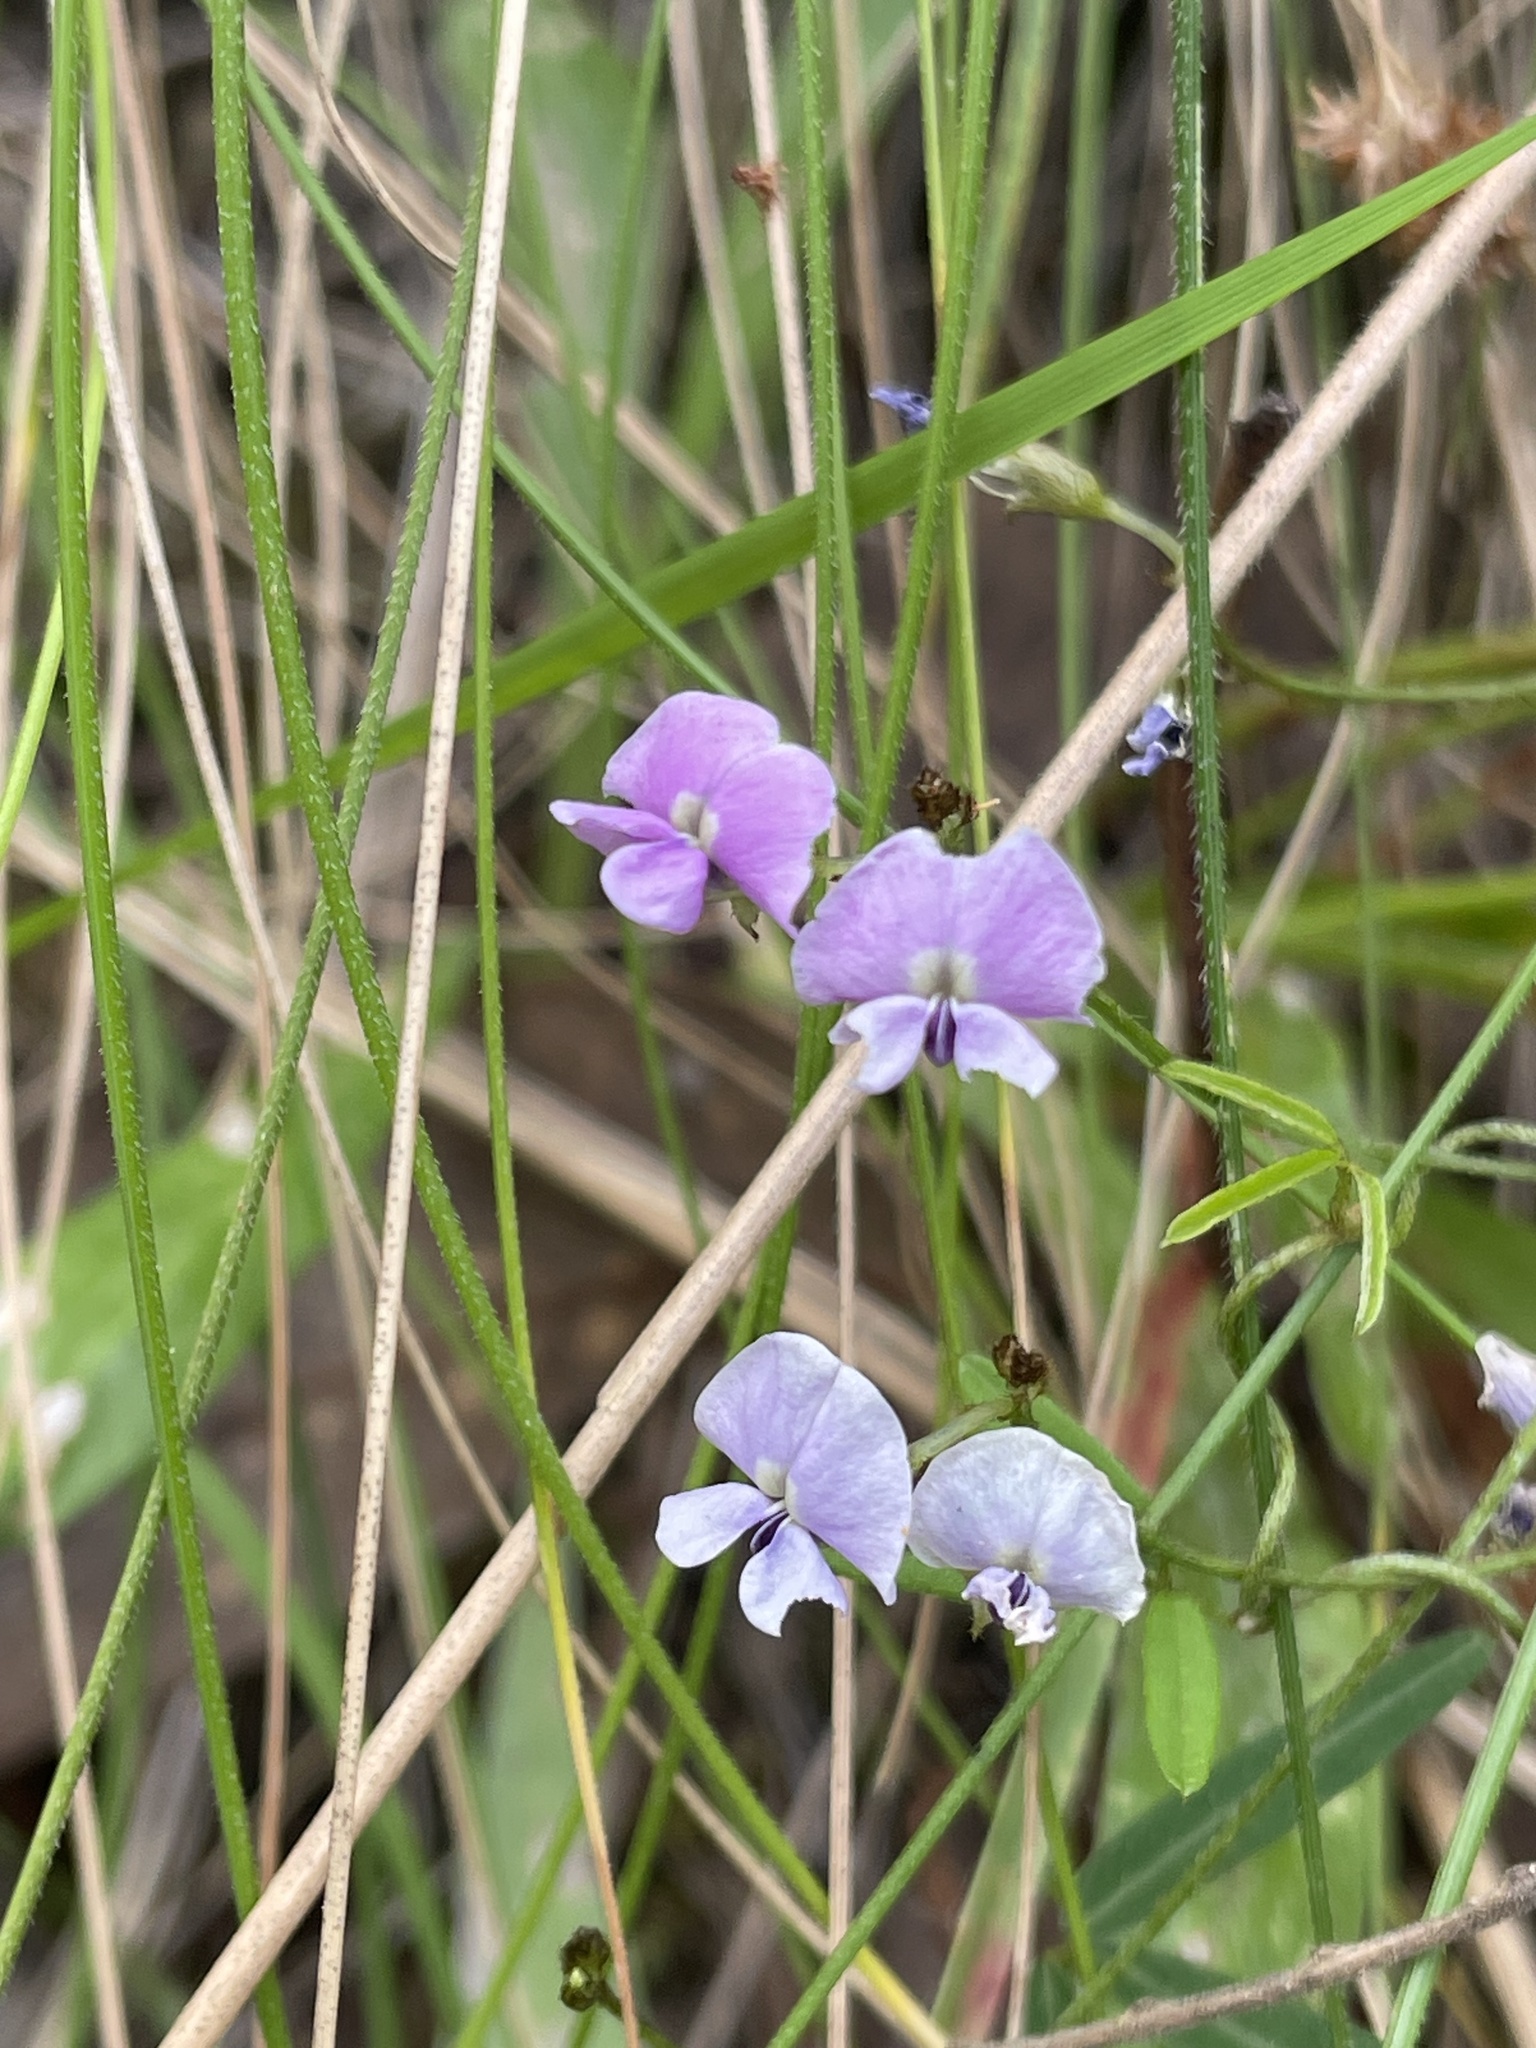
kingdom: Plantae
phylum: Tracheophyta
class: Magnoliopsida
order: Fabales
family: Fabaceae
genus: Glycine
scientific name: Glycine clandestina
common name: Twining glycine
